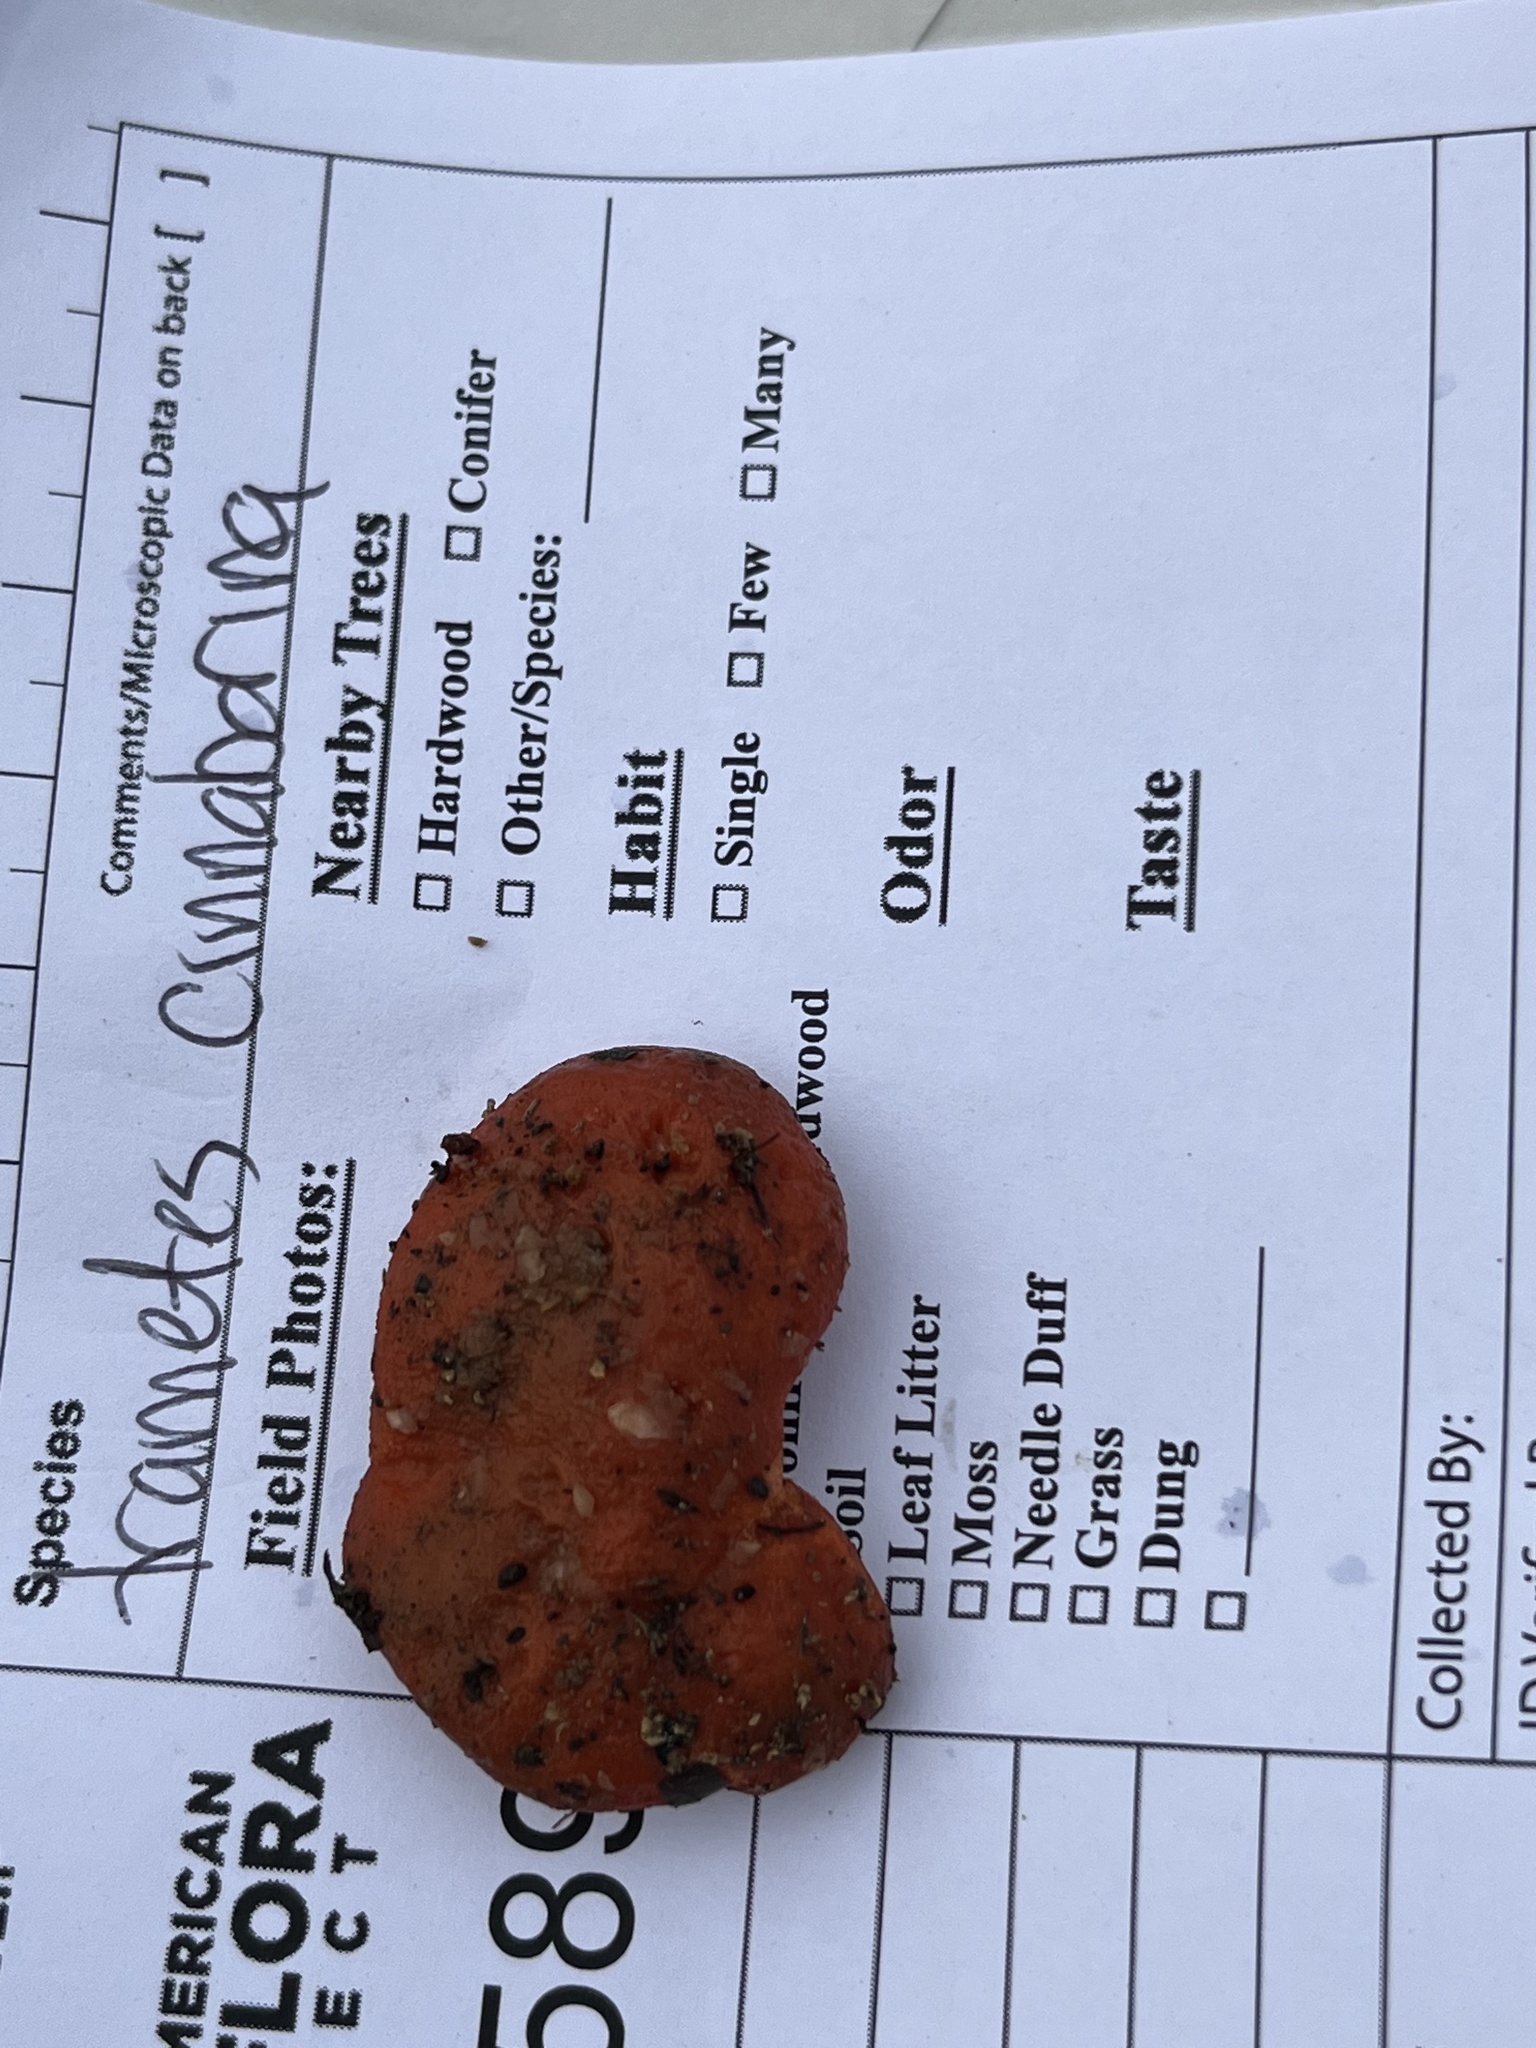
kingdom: Fungi
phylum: Basidiomycota
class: Agaricomycetes
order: Polyporales
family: Polyporaceae
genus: Trametes
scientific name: Trametes cinnabarina
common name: Northern cinnabar polypore
